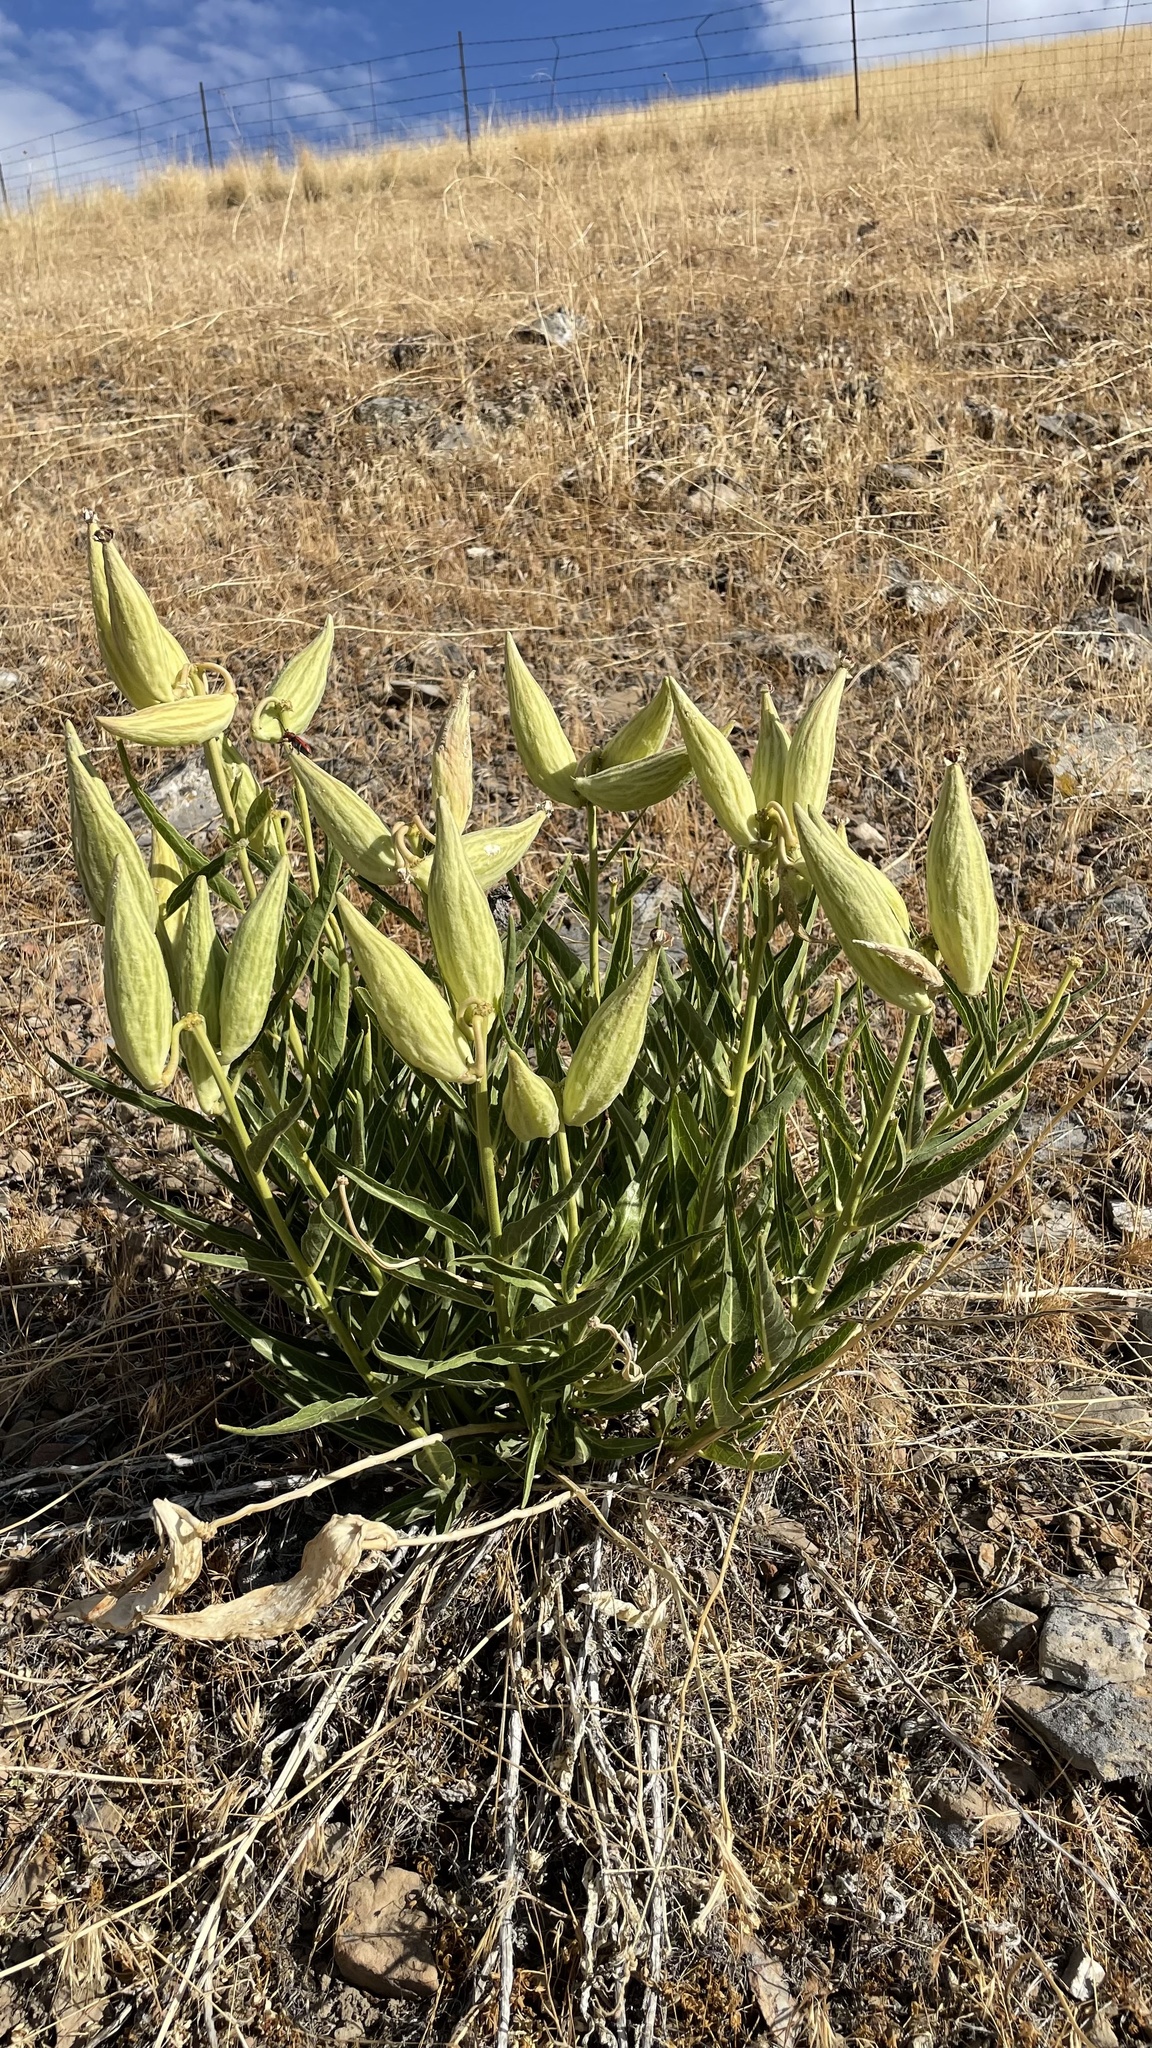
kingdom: Plantae
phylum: Tracheophyta
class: Magnoliopsida
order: Gentianales
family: Apocynaceae
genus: Asclepias
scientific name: Asclepias asperula
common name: Antelope horns
